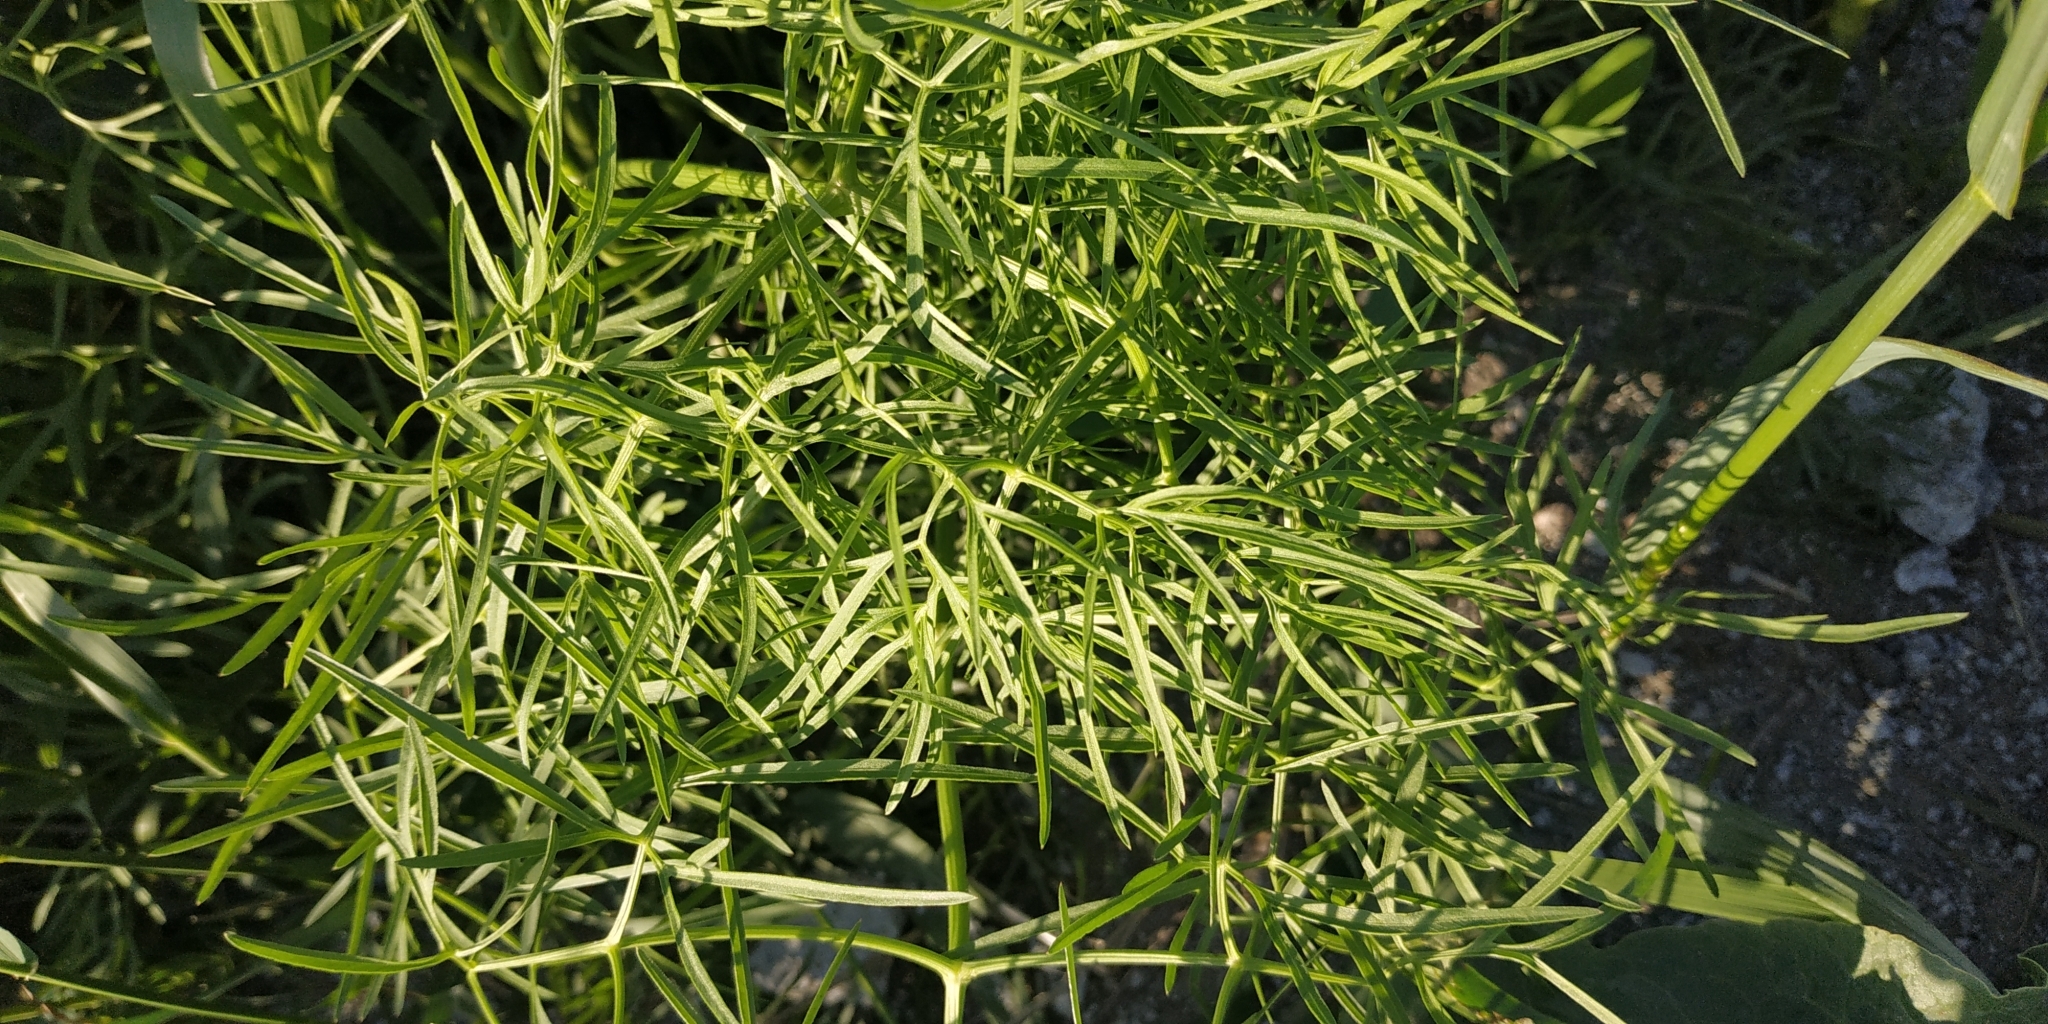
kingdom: Plantae
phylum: Tracheophyta
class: Magnoliopsida
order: Apiales
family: Apiaceae
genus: Cenolophium
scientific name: Cenolophium fischeri
